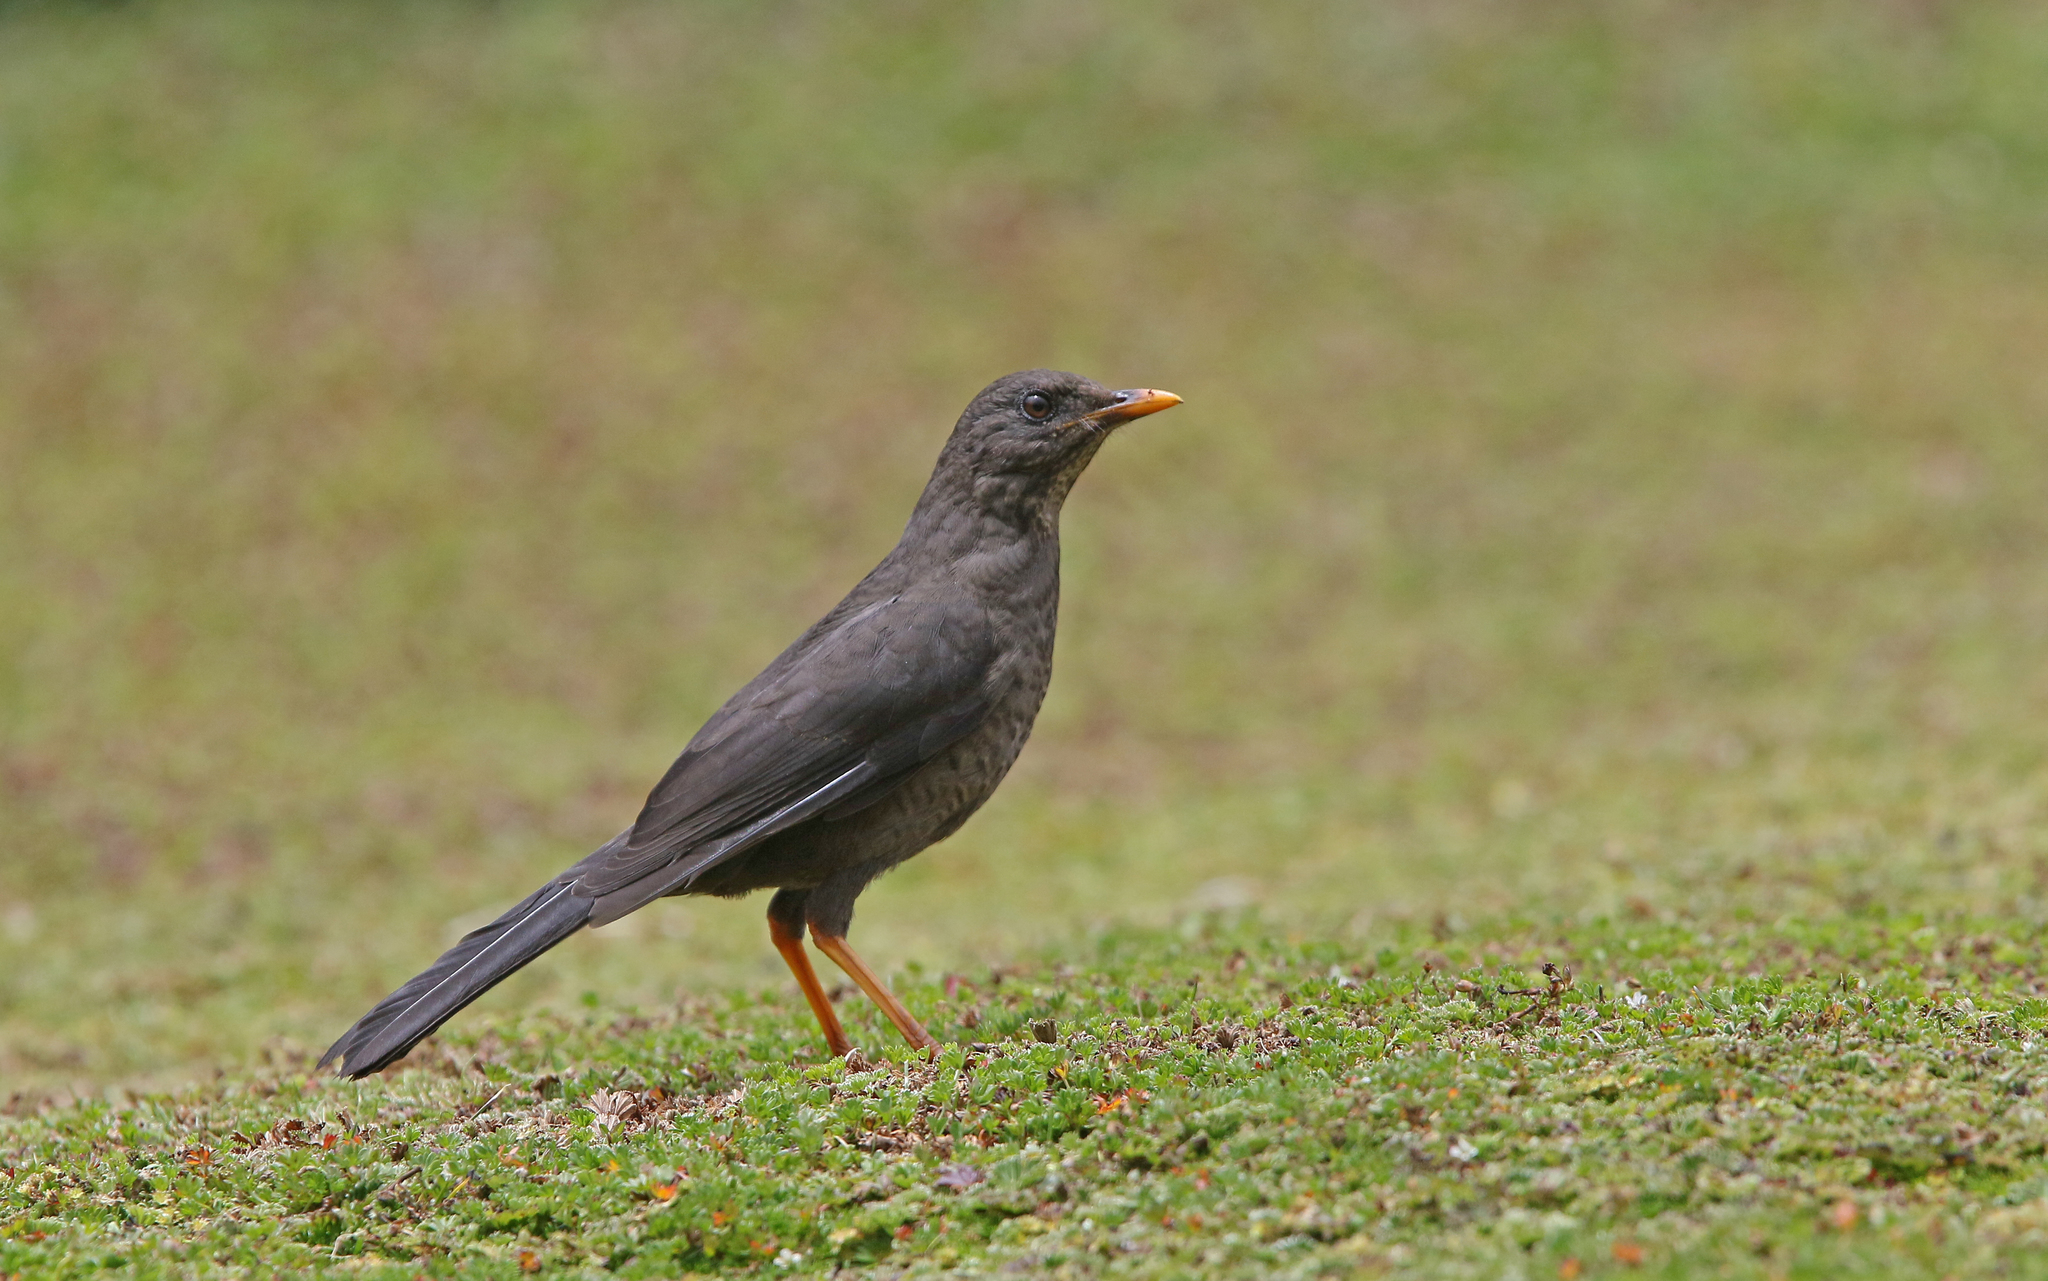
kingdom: Animalia
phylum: Chordata
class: Aves
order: Passeriformes
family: Turdidae
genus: Turdus
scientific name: Turdus fuscater
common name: Great thrush
